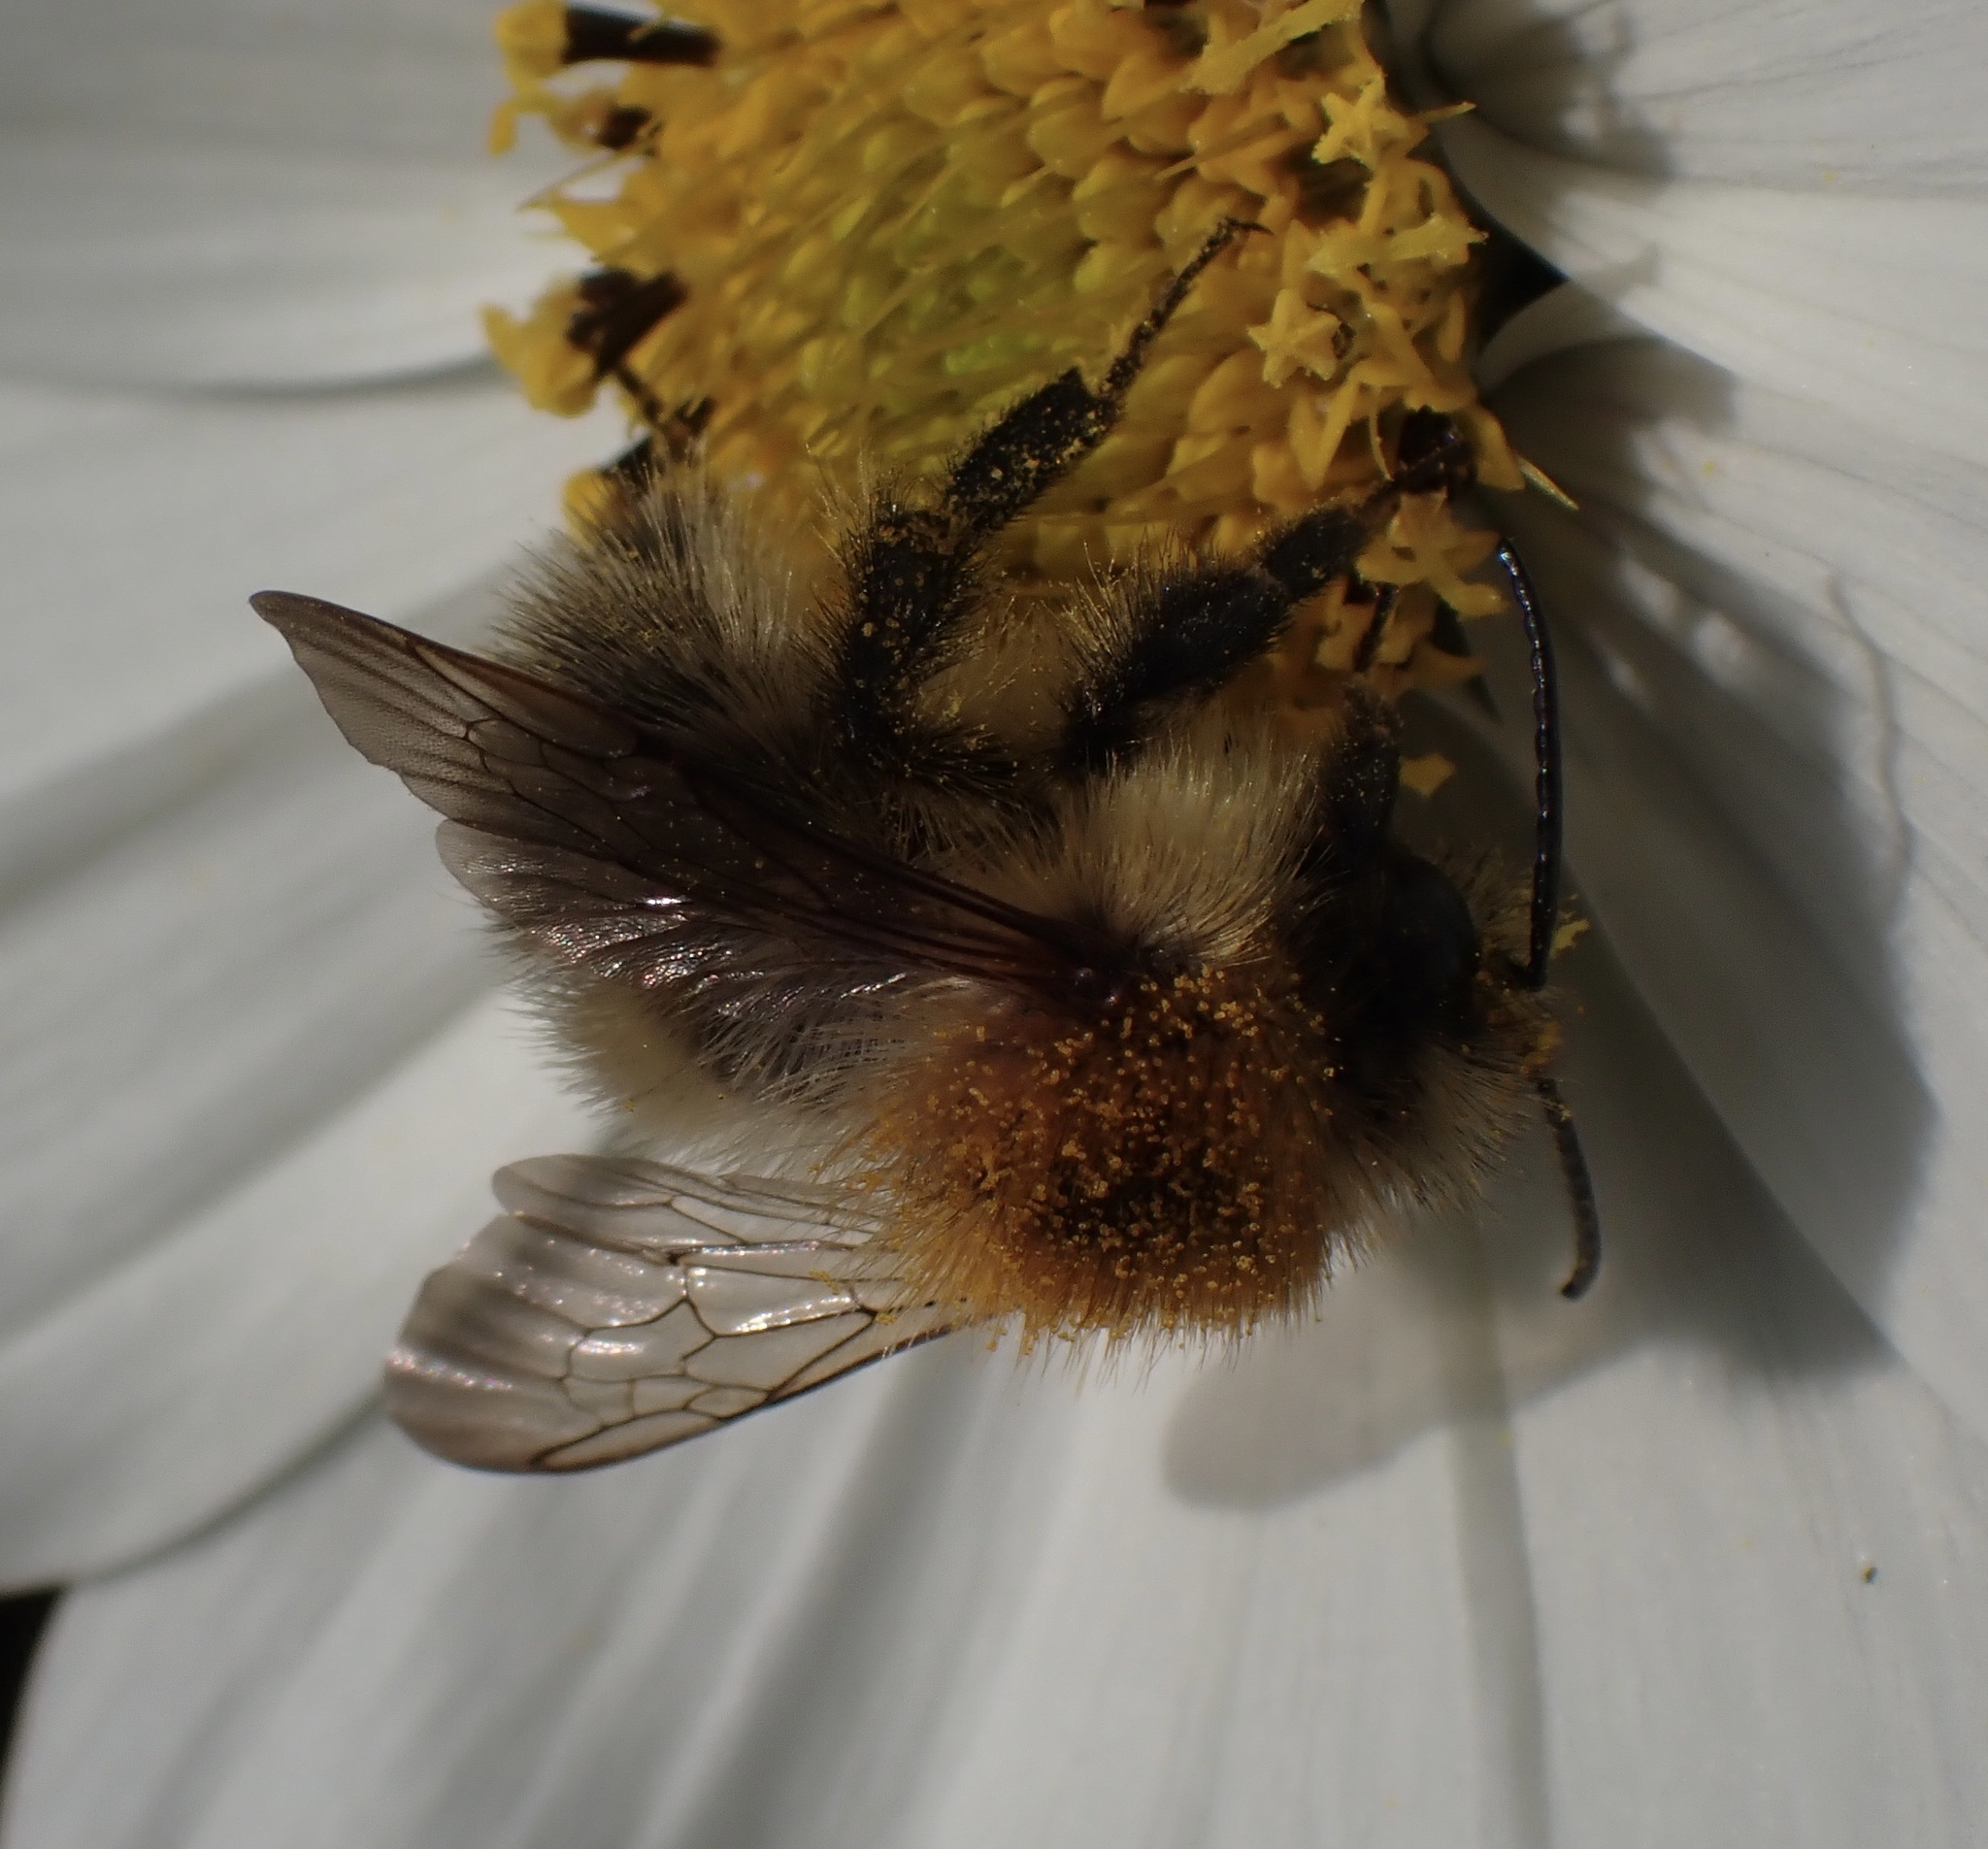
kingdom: Animalia
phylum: Arthropoda
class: Insecta
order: Hymenoptera
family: Apidae
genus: Bombus
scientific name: Bombus pascuorum
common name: Common carder bee
